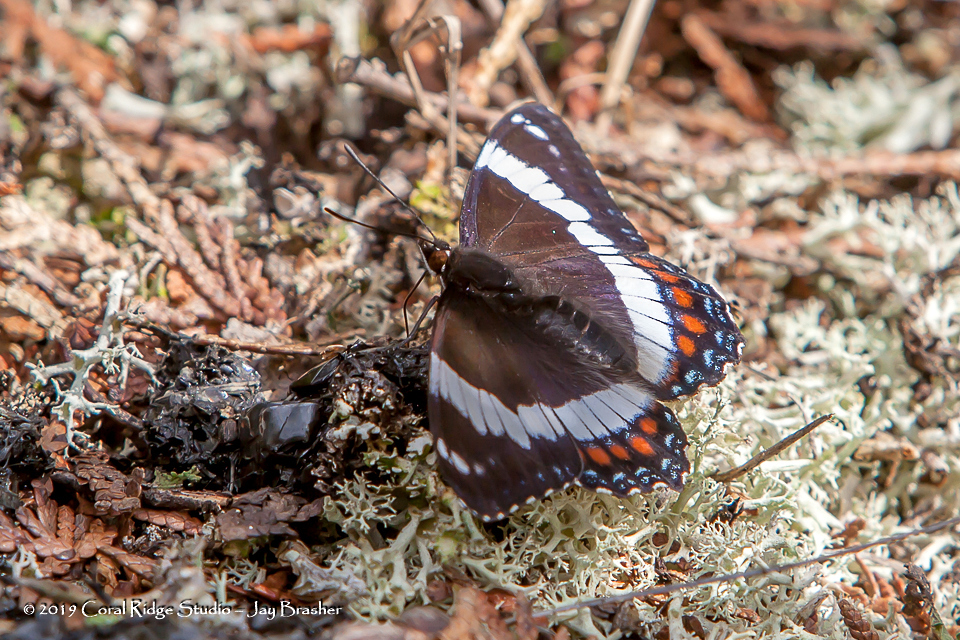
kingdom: Animalia
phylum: Arthropoda
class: Insecta
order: Lepidoptera
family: Nymphalidae
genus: Limenitis
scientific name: Limenitis arthemis
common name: Red-spotted admiral
